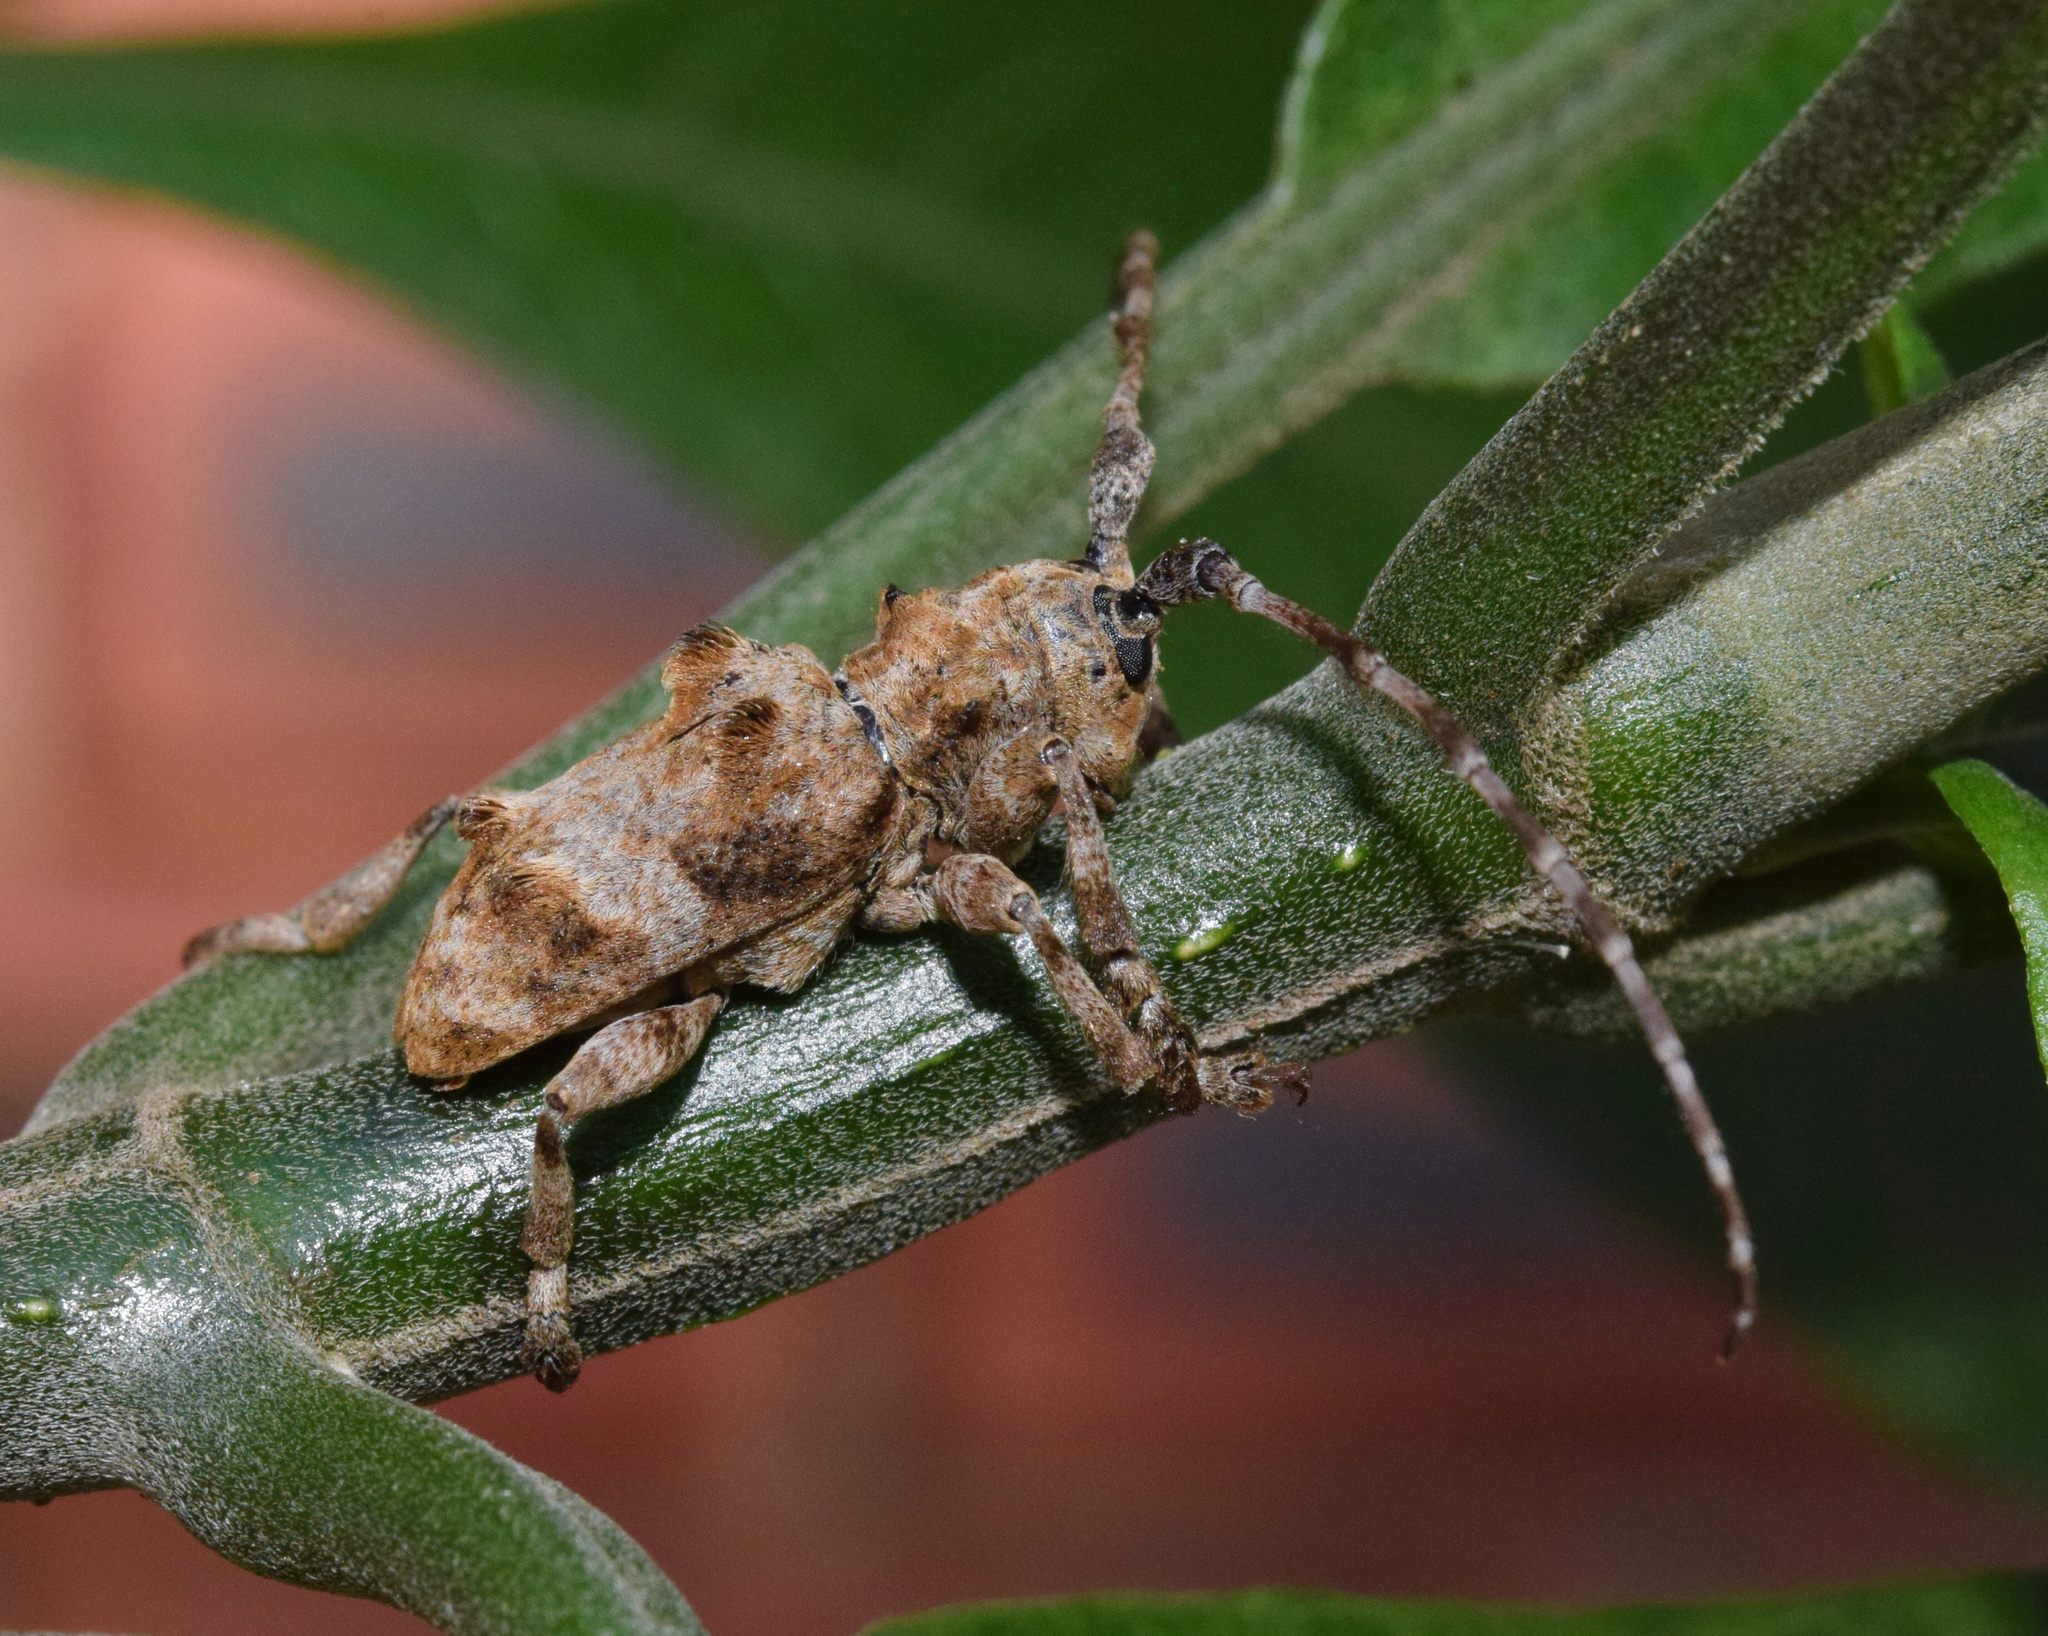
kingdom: Animalia
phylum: Arthropoda
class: Insecta
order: Coleoptera
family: Cerambycidae
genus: Idactus
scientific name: Idactus tridens
